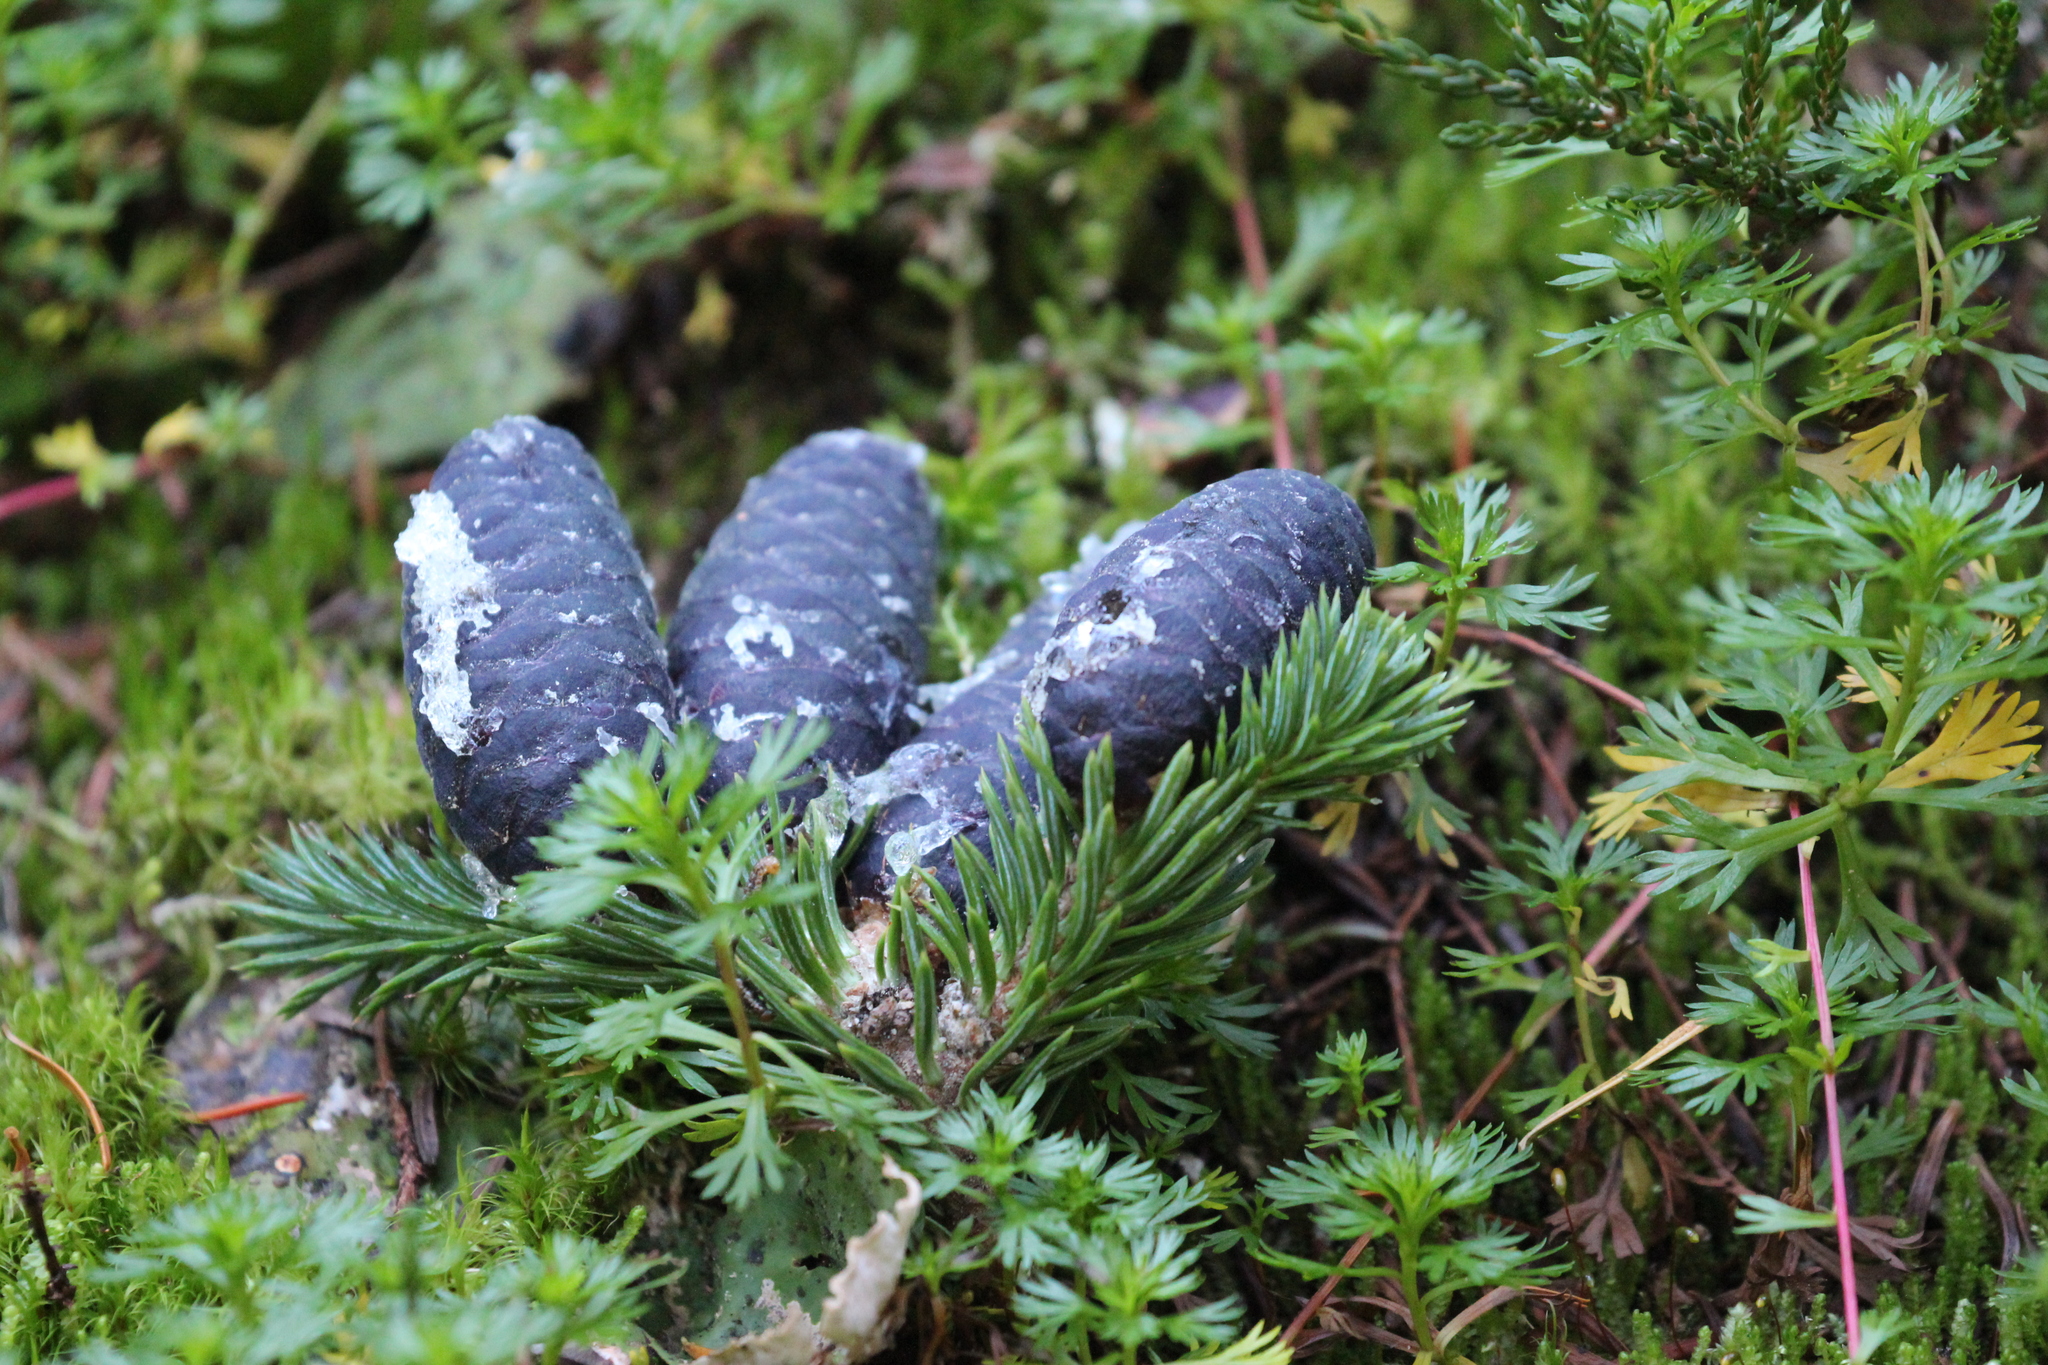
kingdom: Plantae
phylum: Tracheophyta
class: Pinopsida
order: Pinales
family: Pinaceae
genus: Abies
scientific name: Abies lasiocarpa
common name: Subalpine fir
